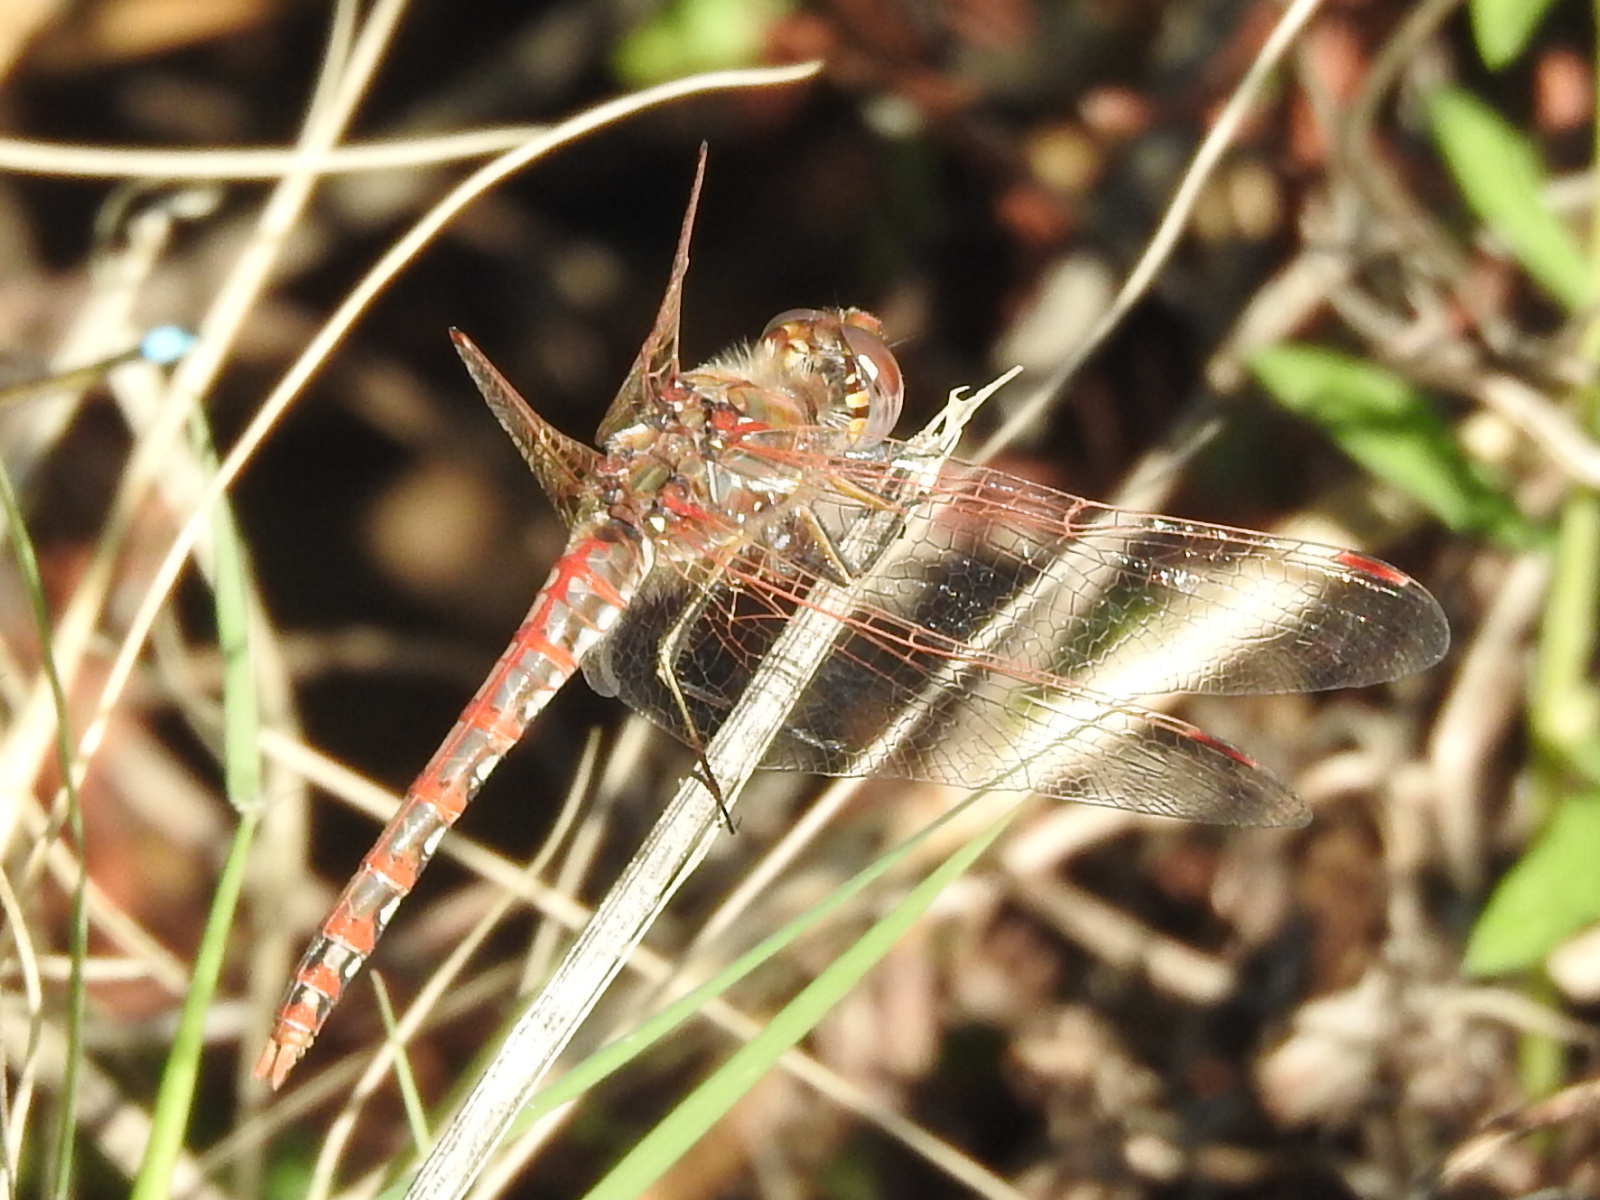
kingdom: Animalia
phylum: Arthropoda
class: Insecta
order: Odonata
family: Libellulidae
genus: Sympetrum
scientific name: Sympetrum corruptum
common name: Variegated meadowhawk
